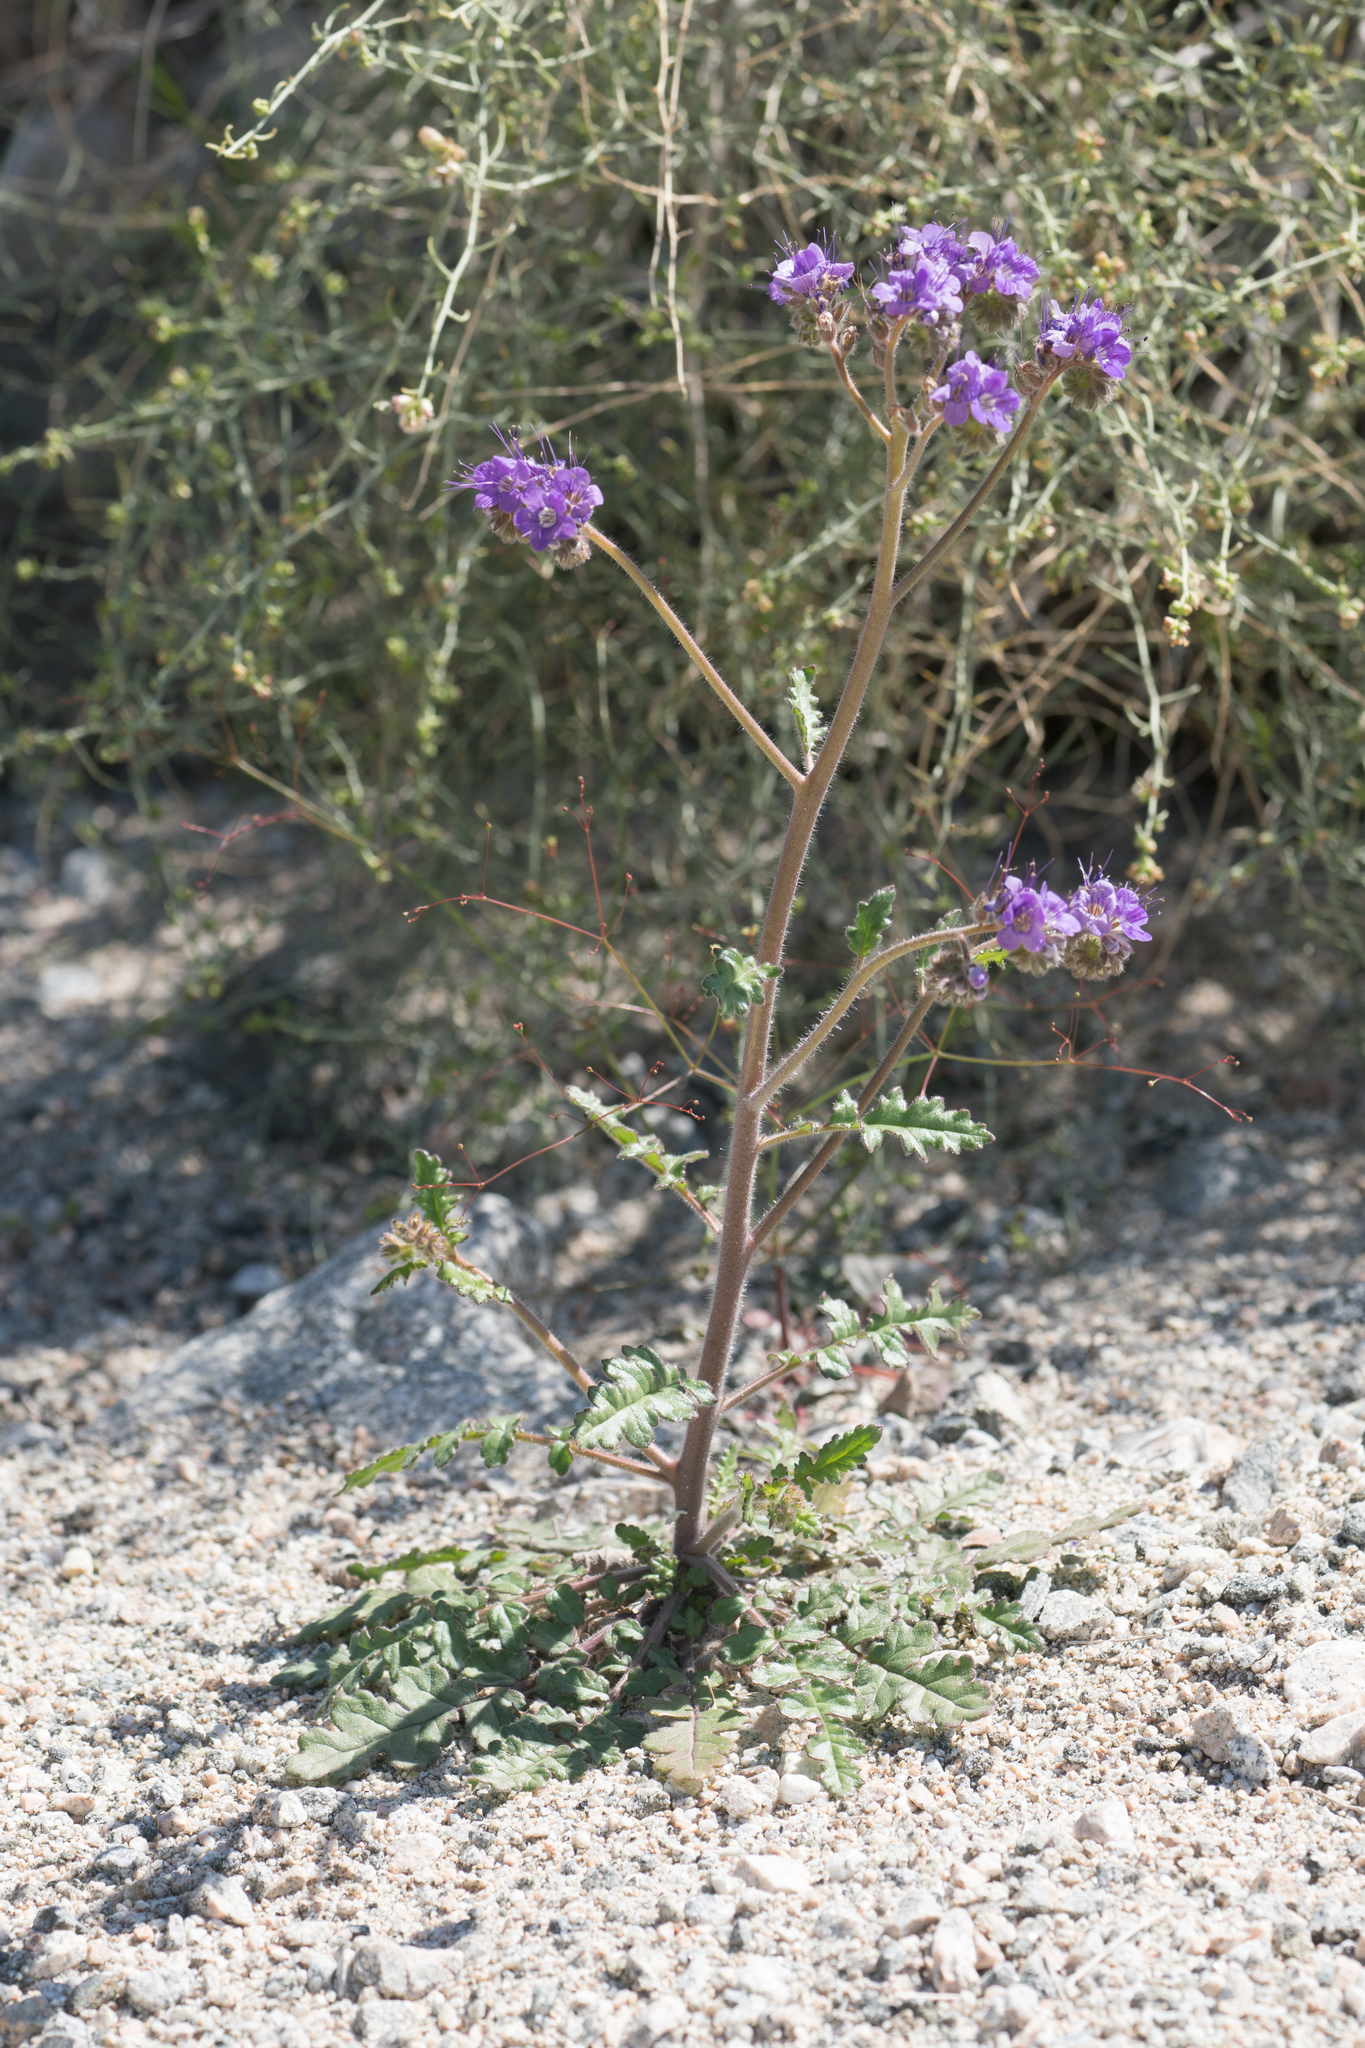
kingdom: Plantae
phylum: Tracheophyta
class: Magnoliopsida
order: Boraginales
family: Hydrophyllaceae
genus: Phacelia
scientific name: Phacelia crenulata
